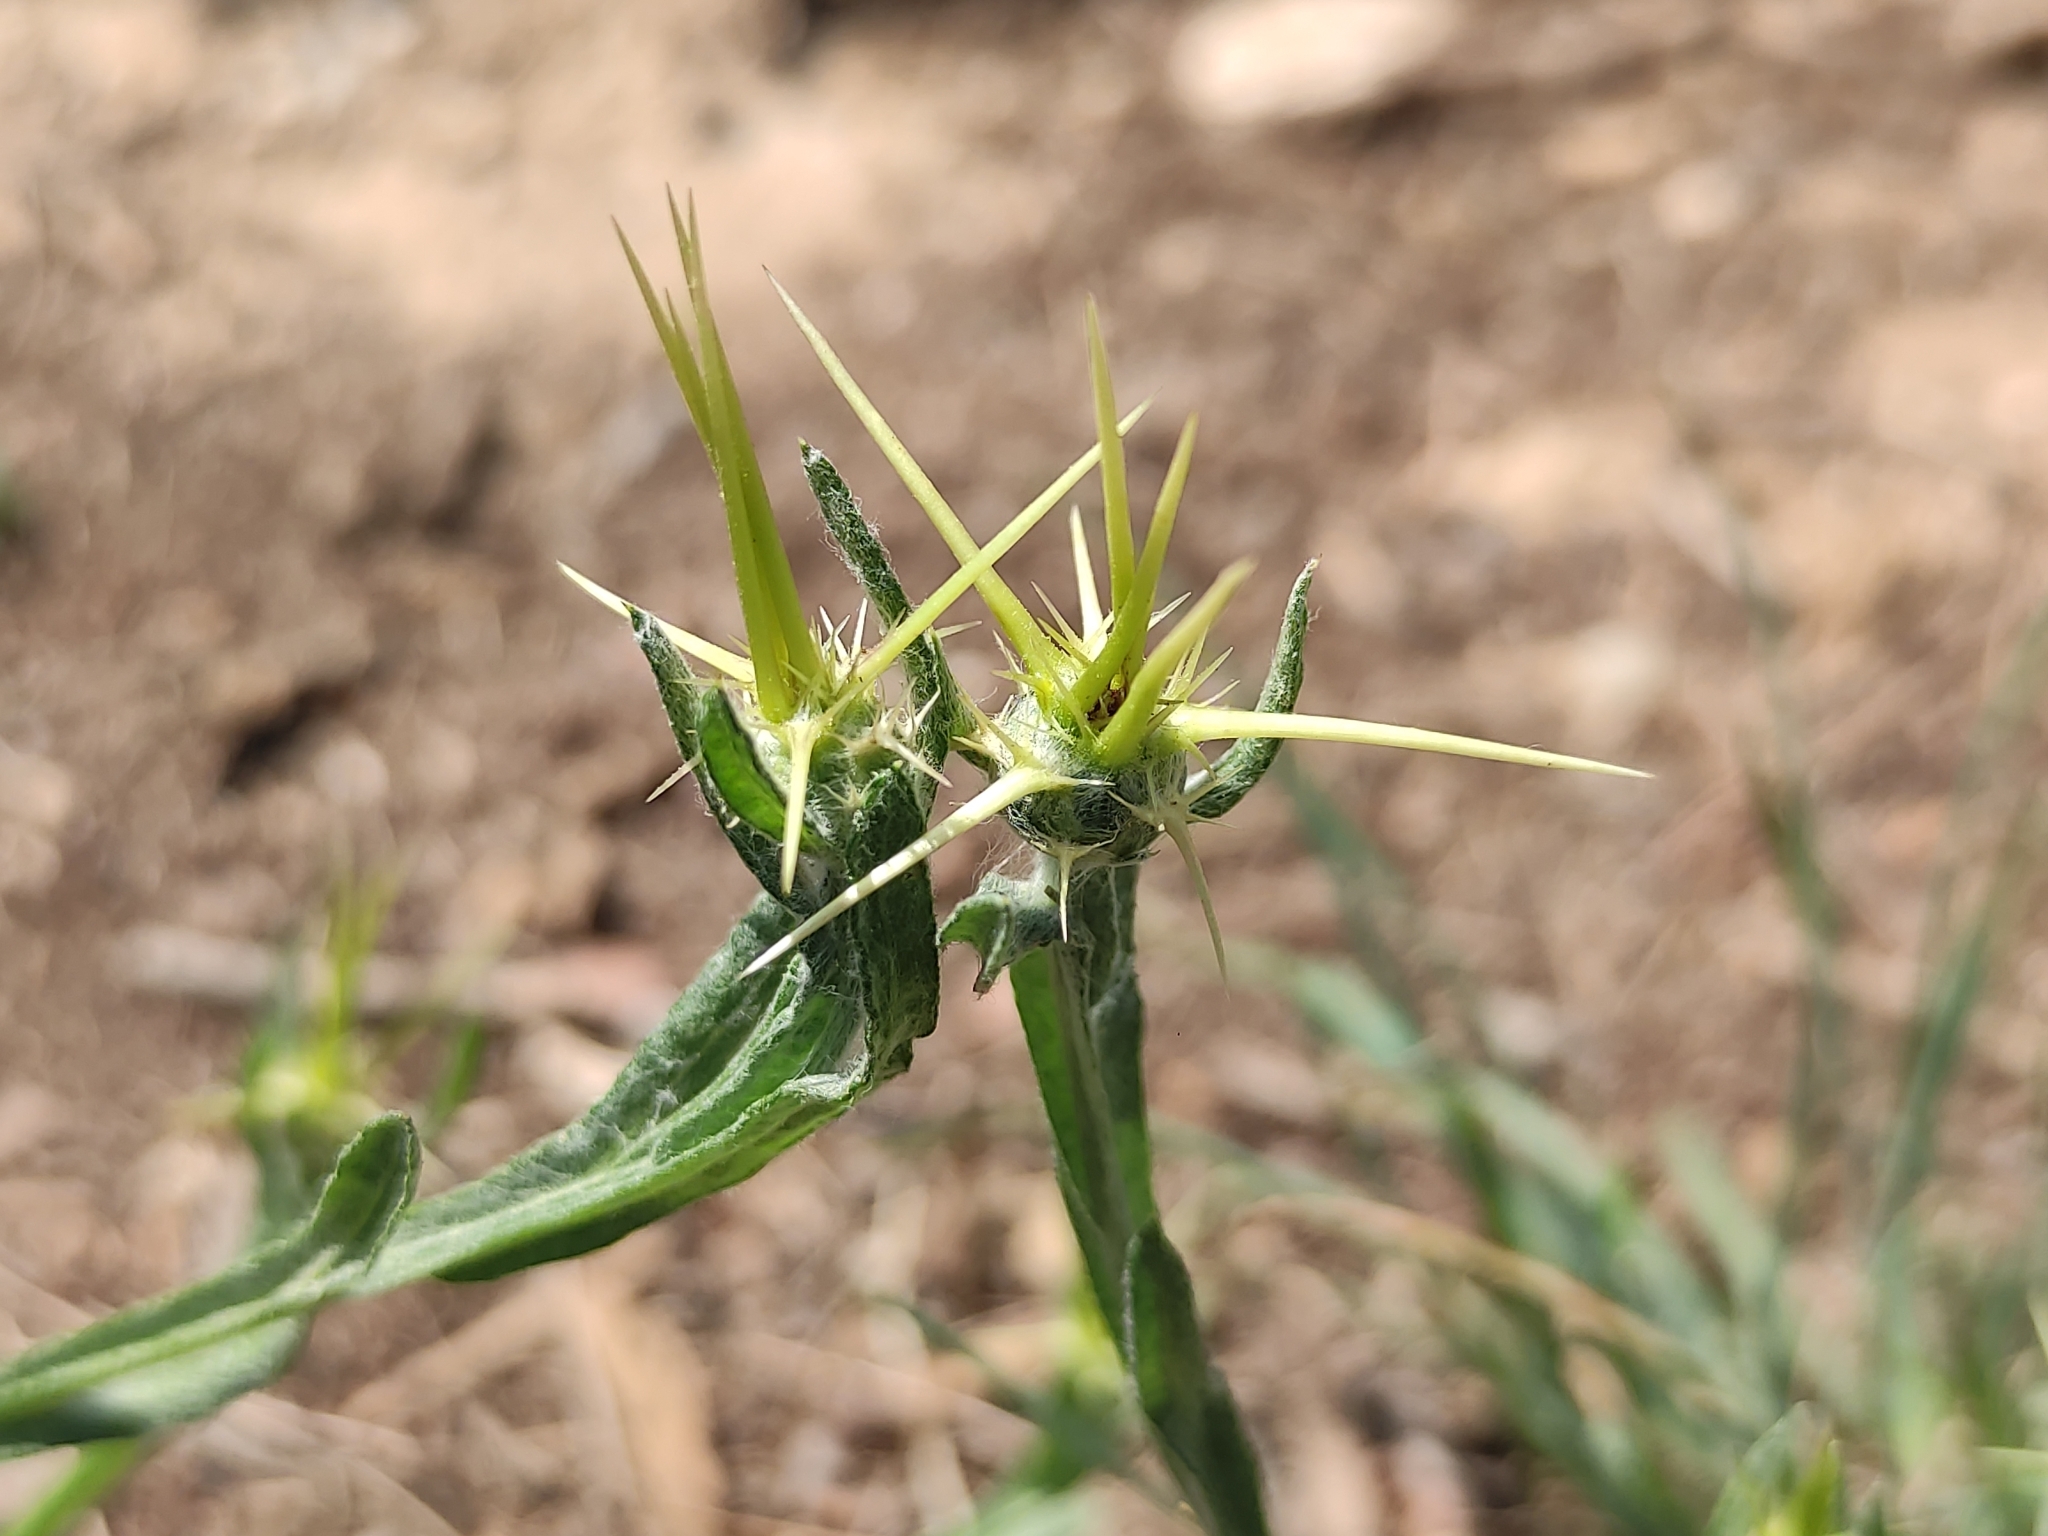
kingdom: Plantae
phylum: Tracheophyta
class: Magnoliopsida
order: Asterales
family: Asteraceae
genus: Centaurea
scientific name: Centaurea solstitialis
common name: Yellow star-thistle
